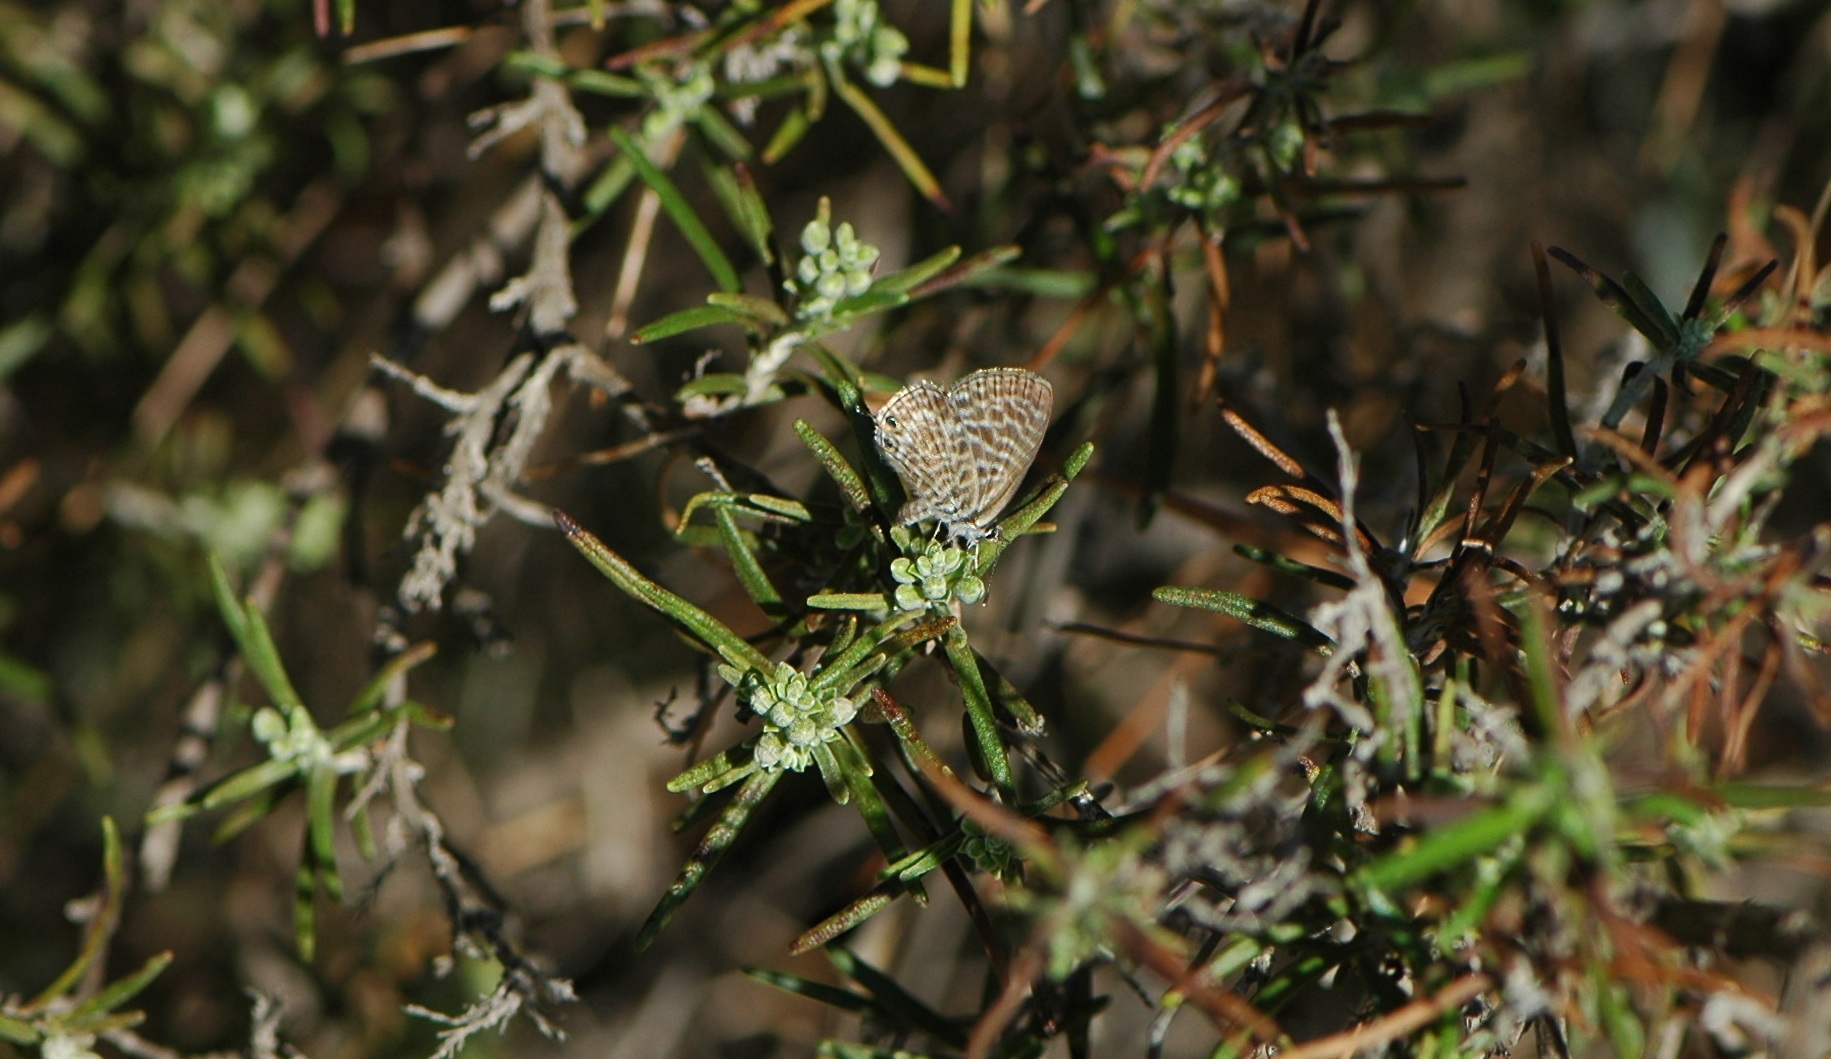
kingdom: Animalia
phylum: Arthropoda
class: Insecta
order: Lepidoptera
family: Lycaenidae
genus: Leptotes
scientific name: Leptotes pirithous
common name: Lang's short-tailed blue
